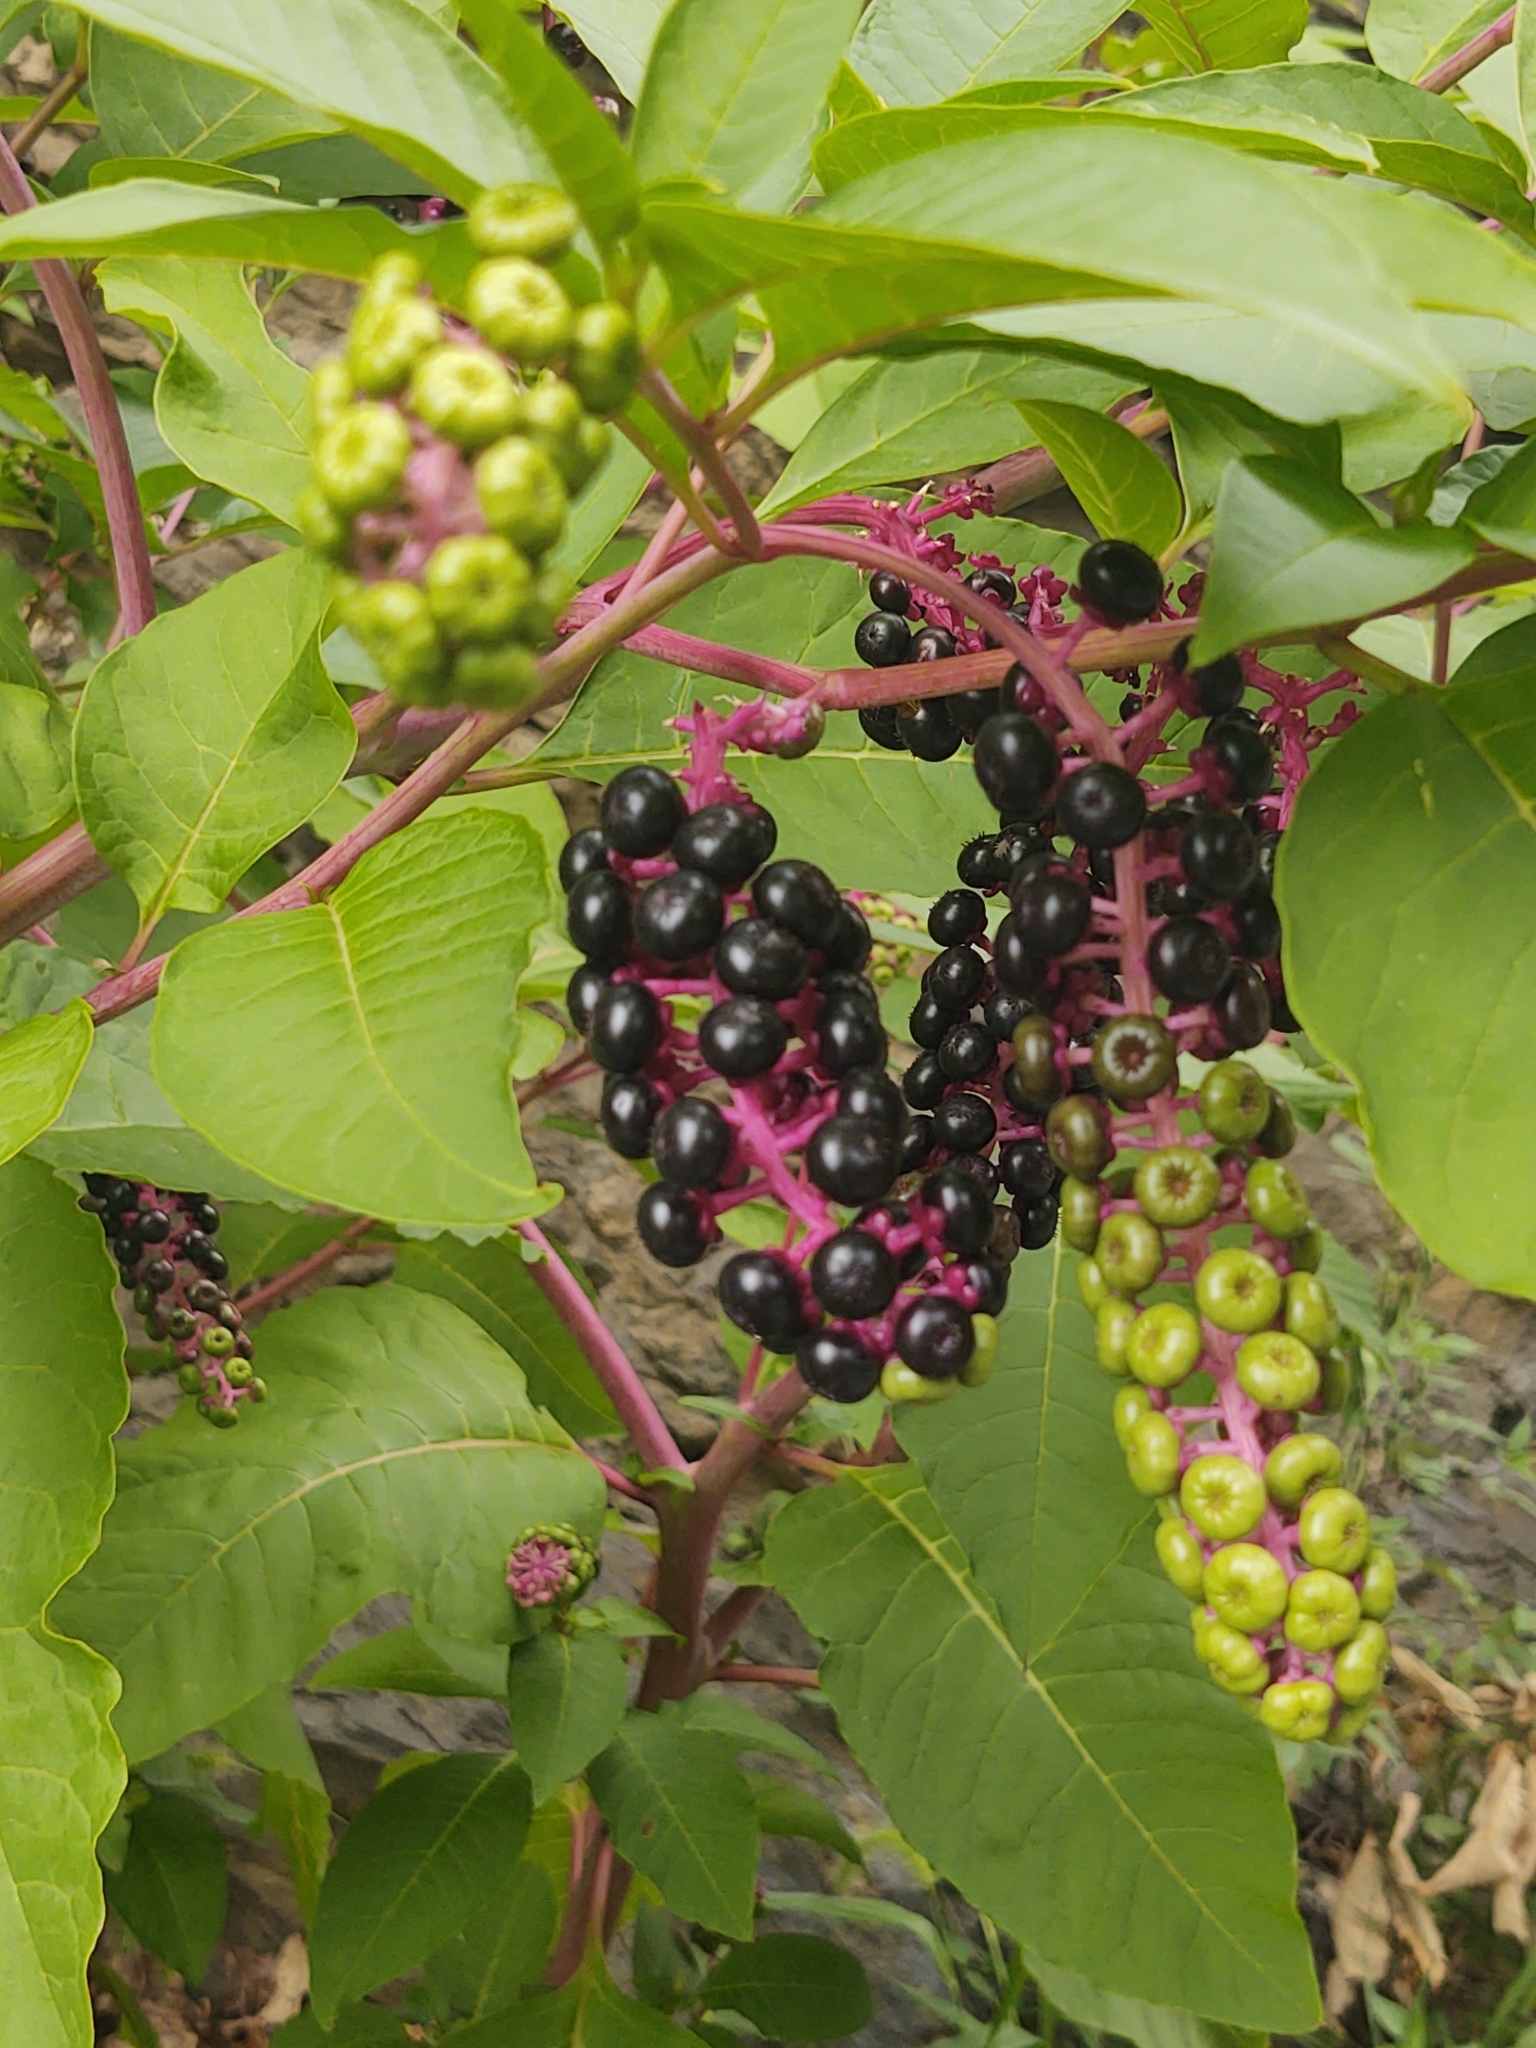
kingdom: Plantae
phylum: Tracheophyta
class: Magnoliopsida
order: Caryophyllales
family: Phytolaccaceae
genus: Phytolacca
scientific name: Phytolacca americana
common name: American pokeweed
